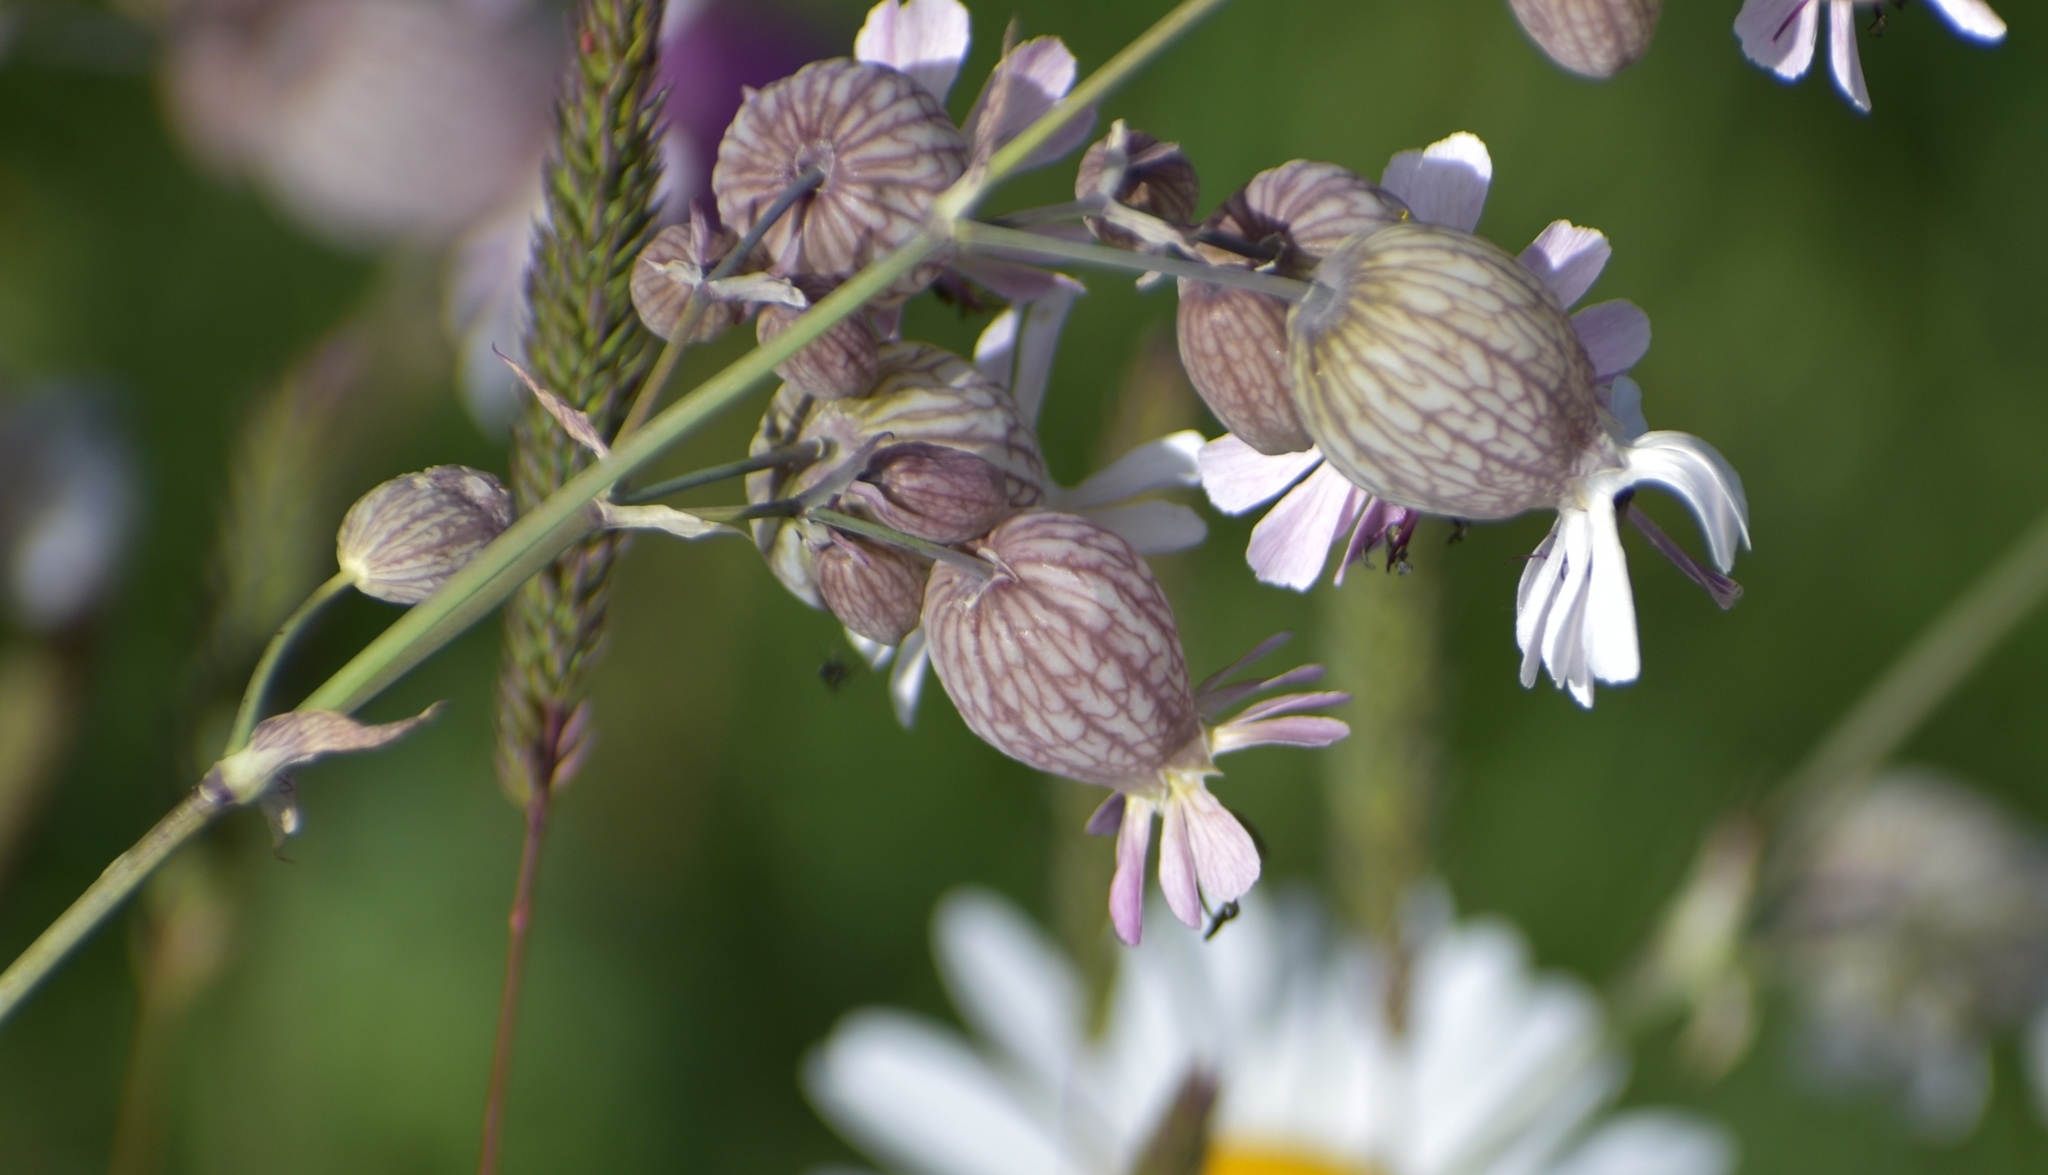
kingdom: Plantae
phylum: Tracheophyta
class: Magnoliopsida
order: Caryophyllales
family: Caryophyllaceae
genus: Silene
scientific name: Silene vulgaris
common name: Bladder campion
